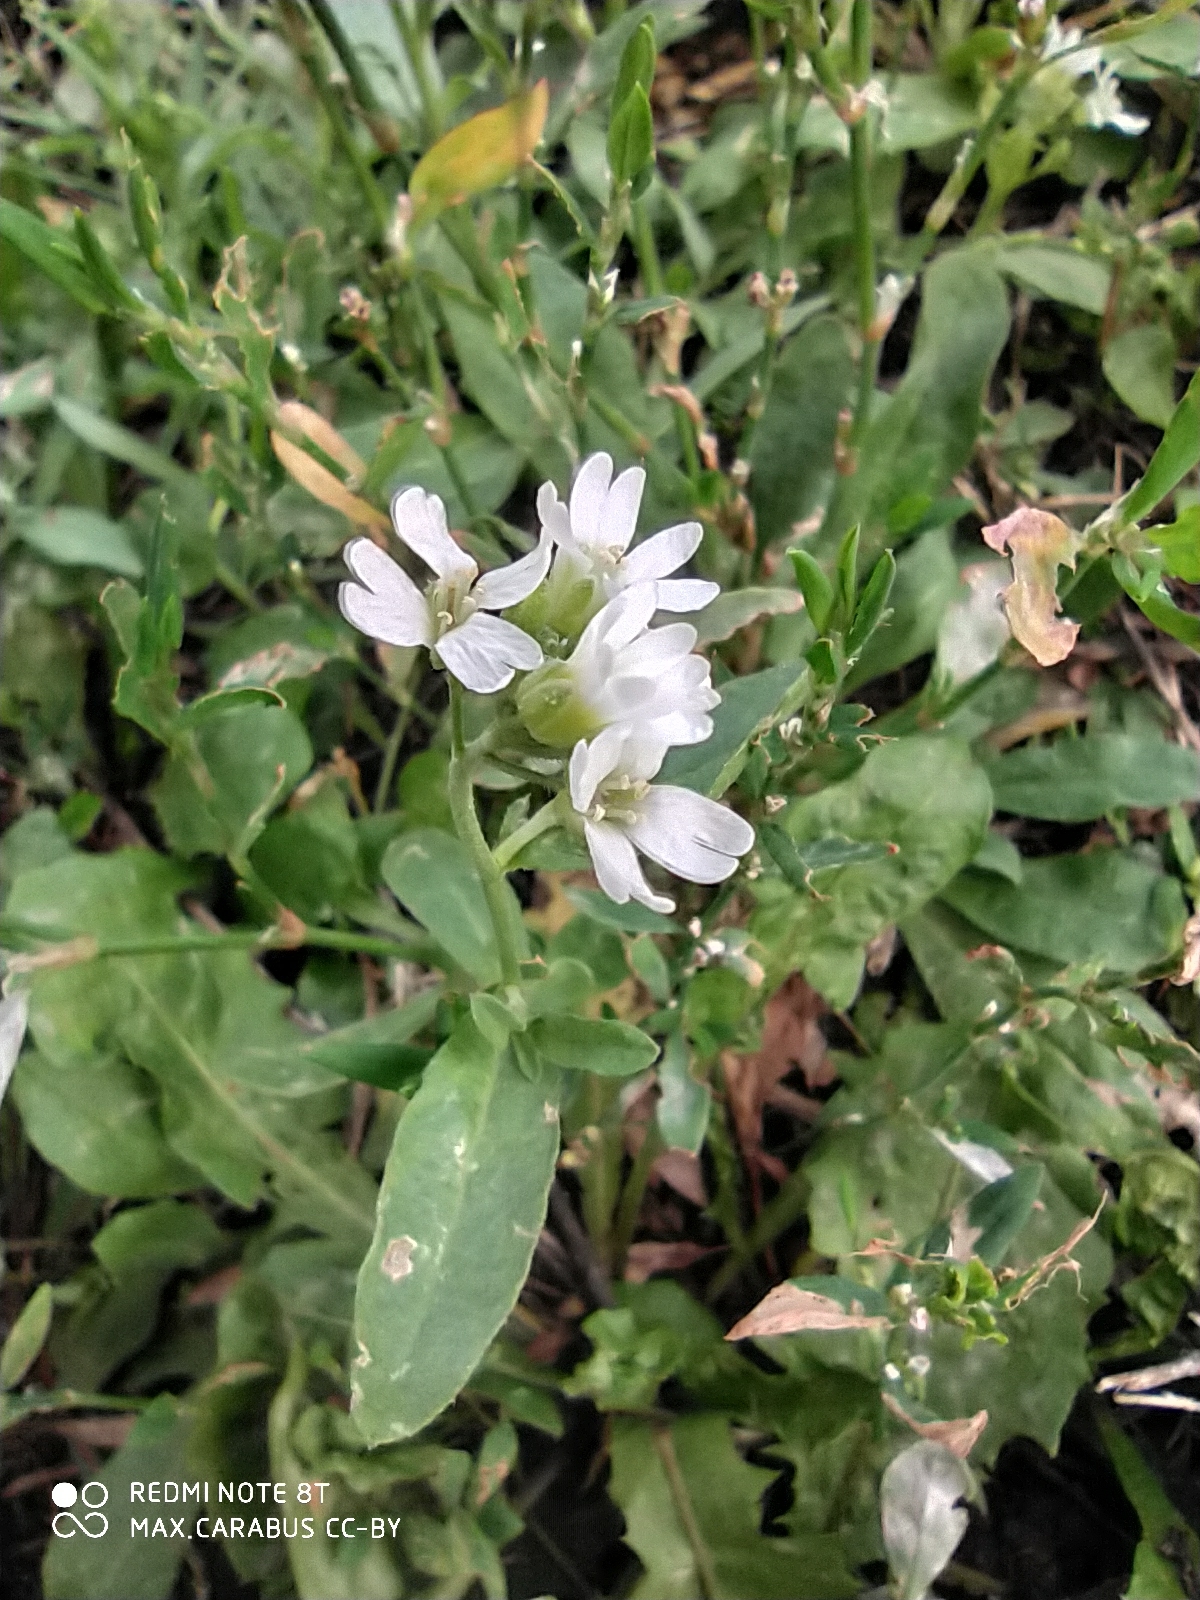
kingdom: Plantae
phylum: Tracheophyta
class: Magnoliopsida
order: Brassicales
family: Brassicaceae
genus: Berteroa
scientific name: Berteroa incana
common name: Hoary alison
